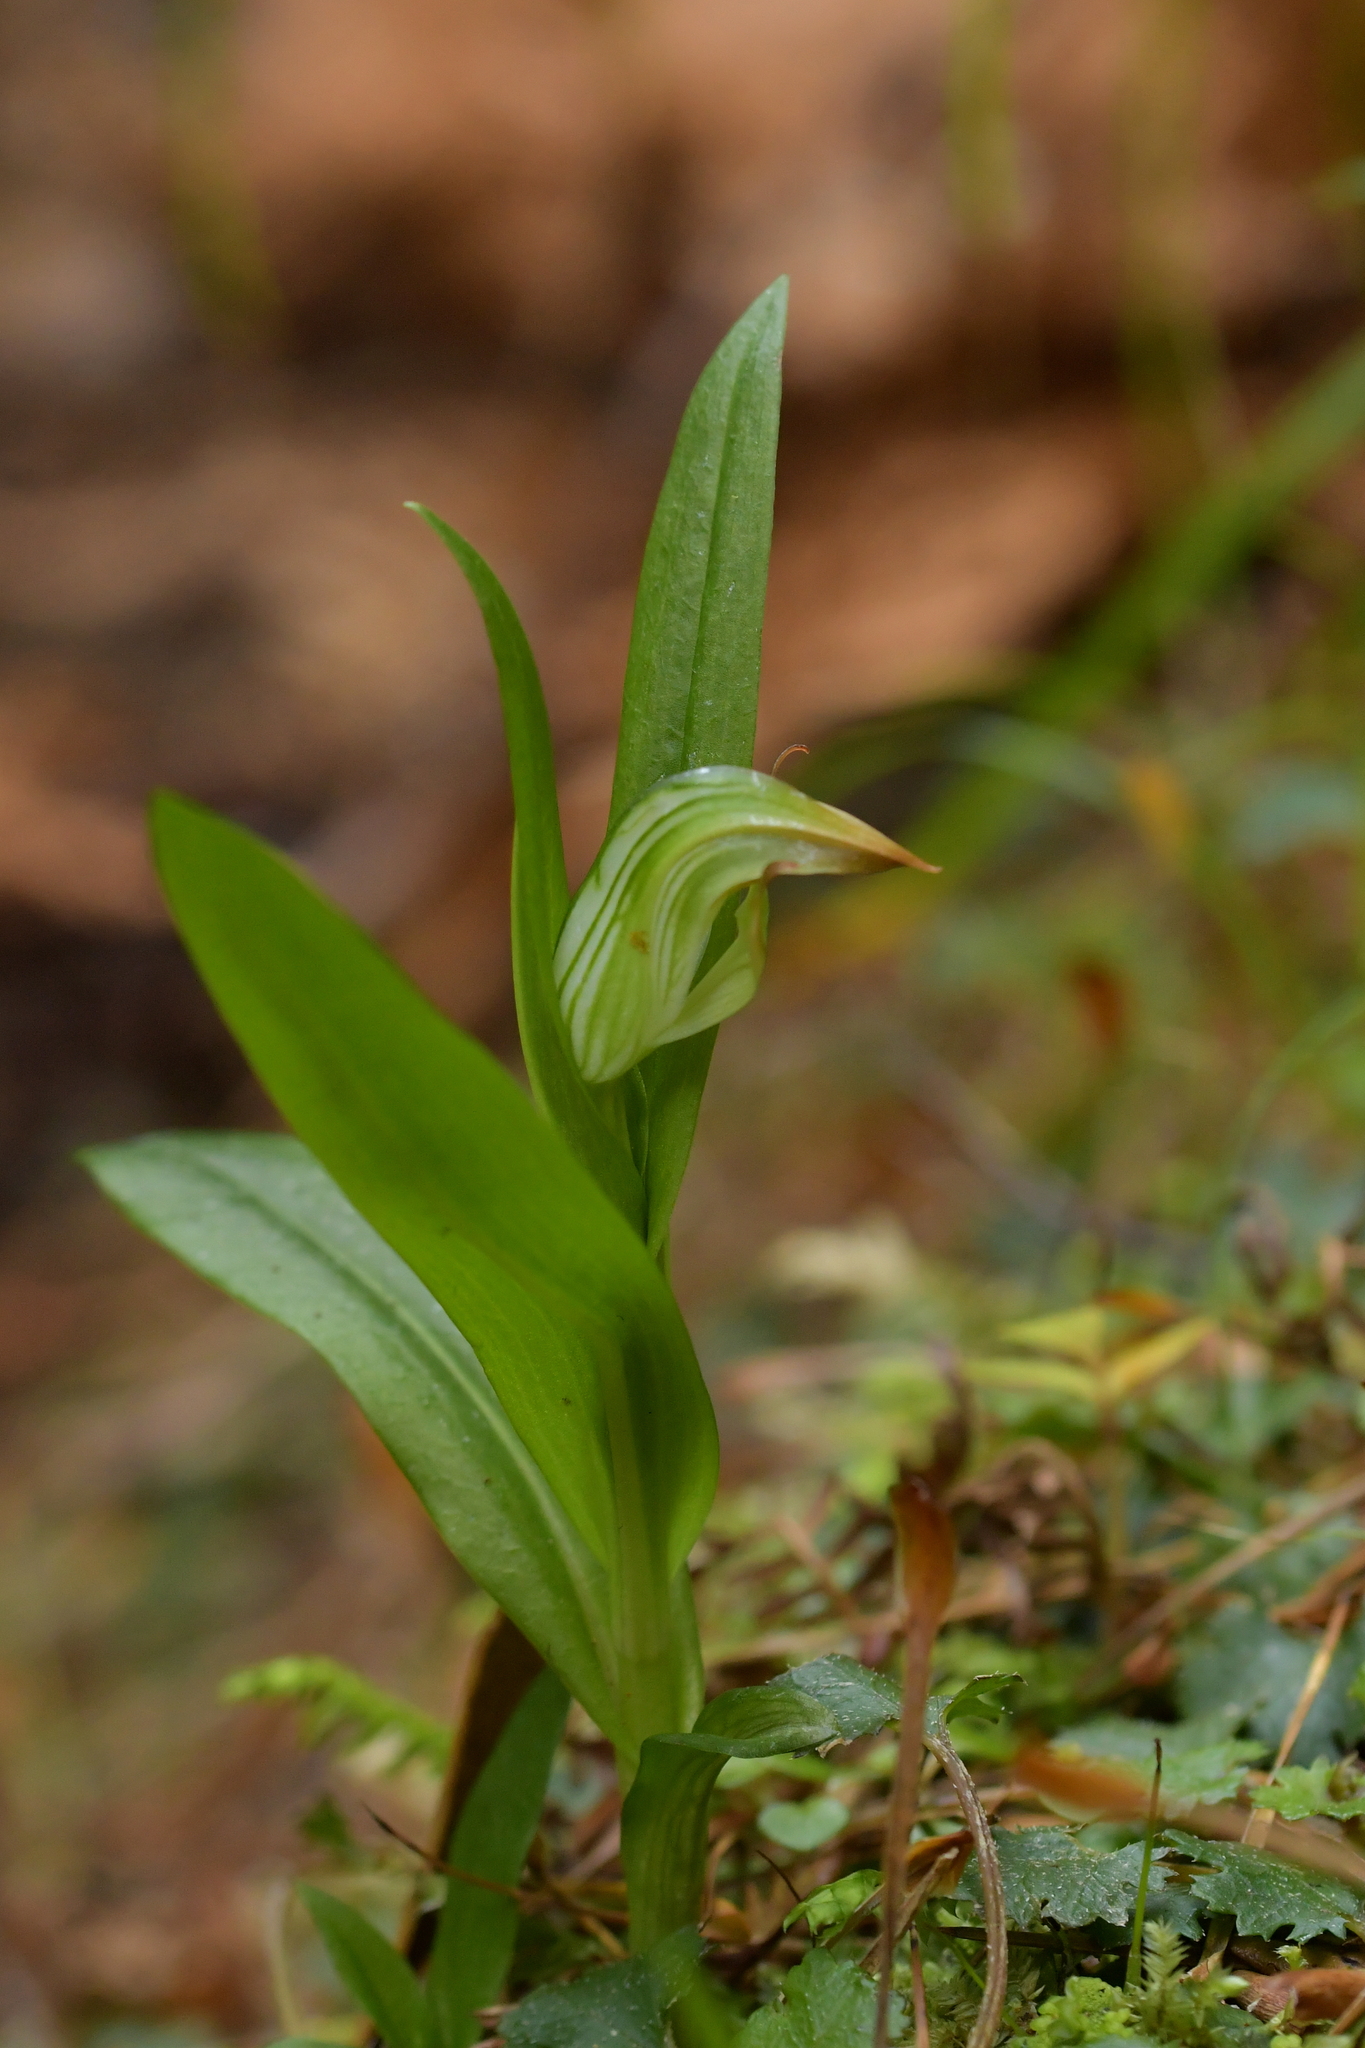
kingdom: Plantae
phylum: Tracheophyta
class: Liliopsida
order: Asparagales
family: Orchidaceae
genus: Pterostylis
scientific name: Pterostylis silvicultrix
